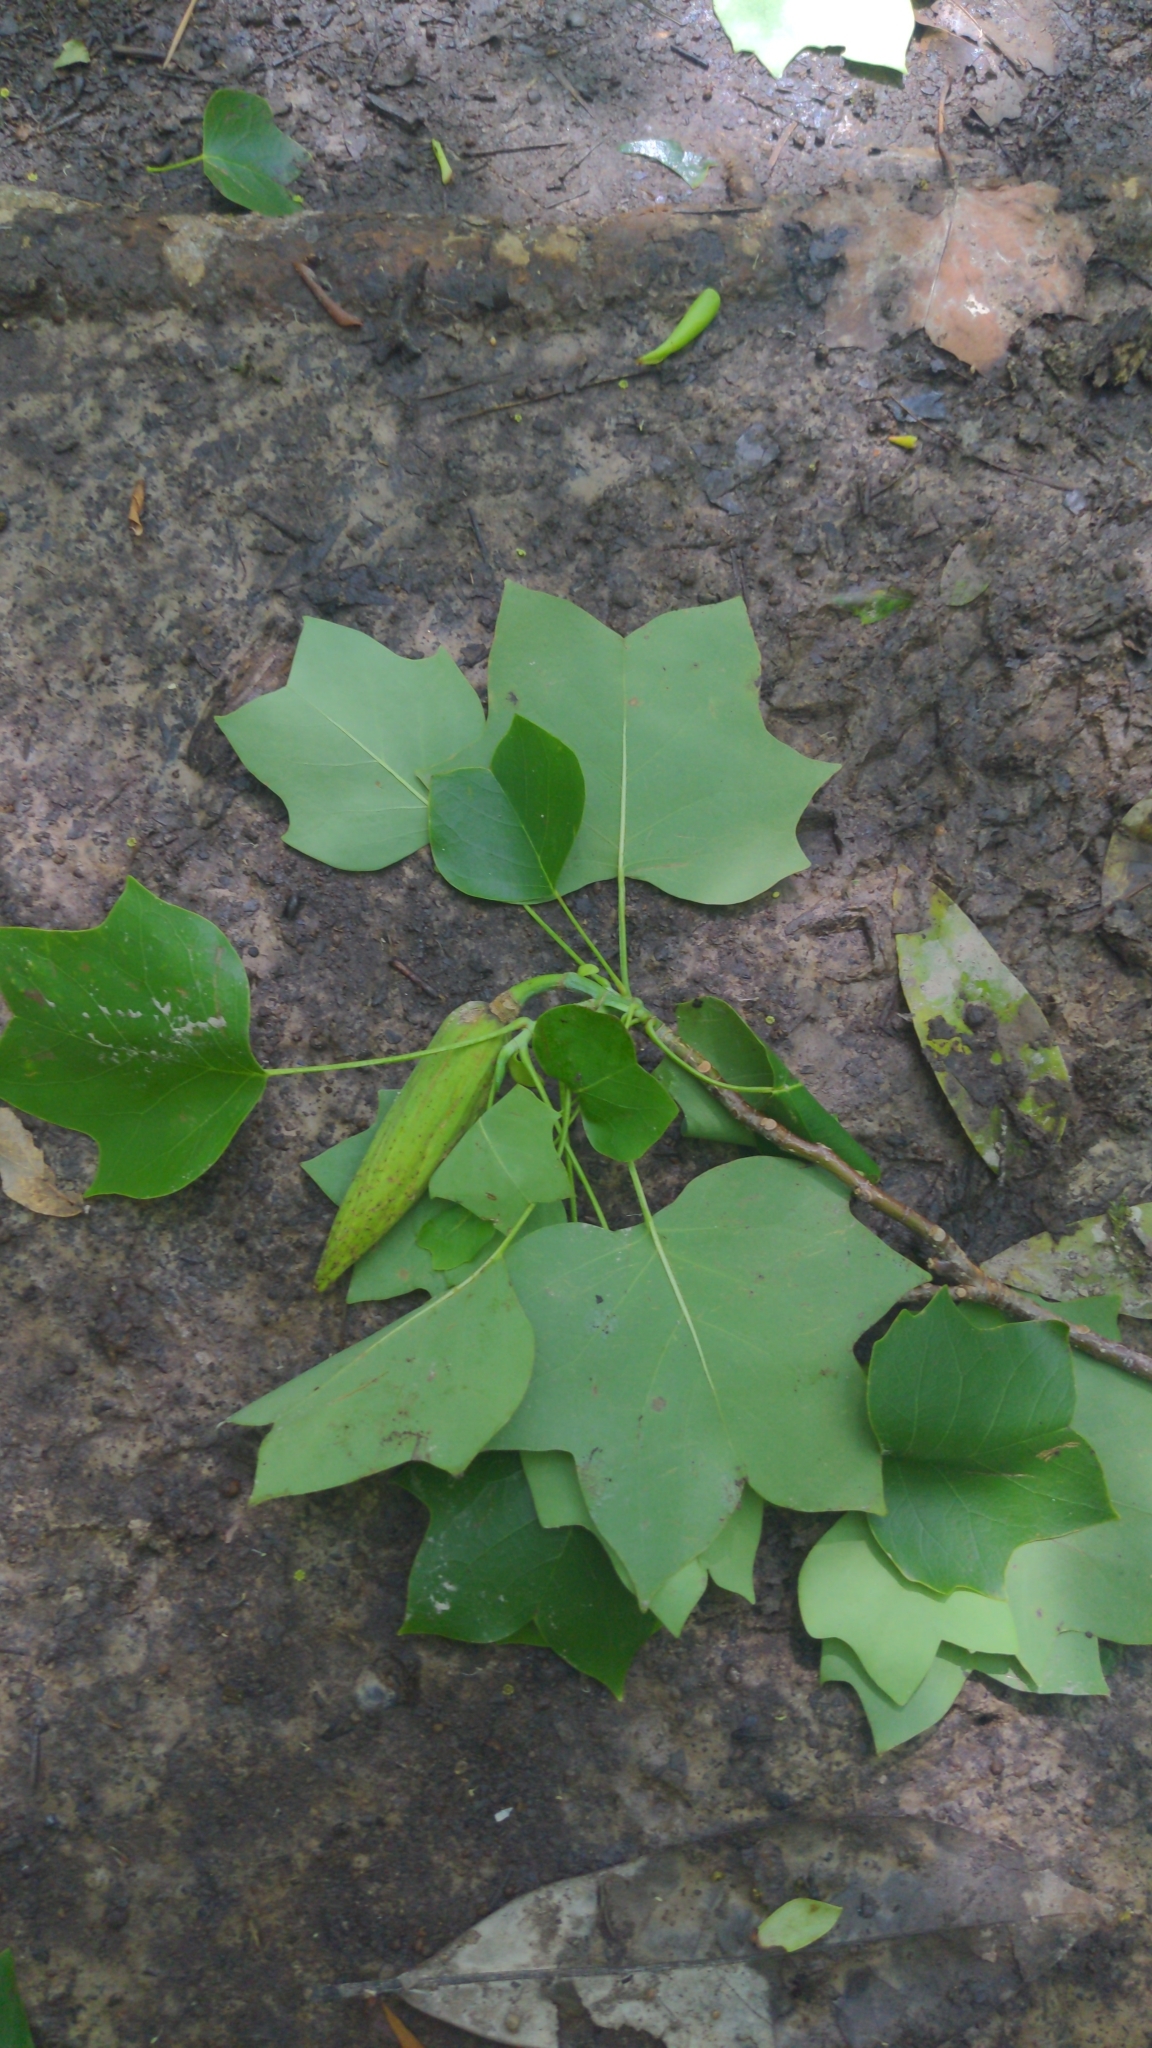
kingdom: Plantae
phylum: Tracheophyta
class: Magnoliopsida
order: Magnoliales
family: Magnoliaceae
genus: Liriodendron
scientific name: Liriodendron tulipifera
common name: Tulip tree
